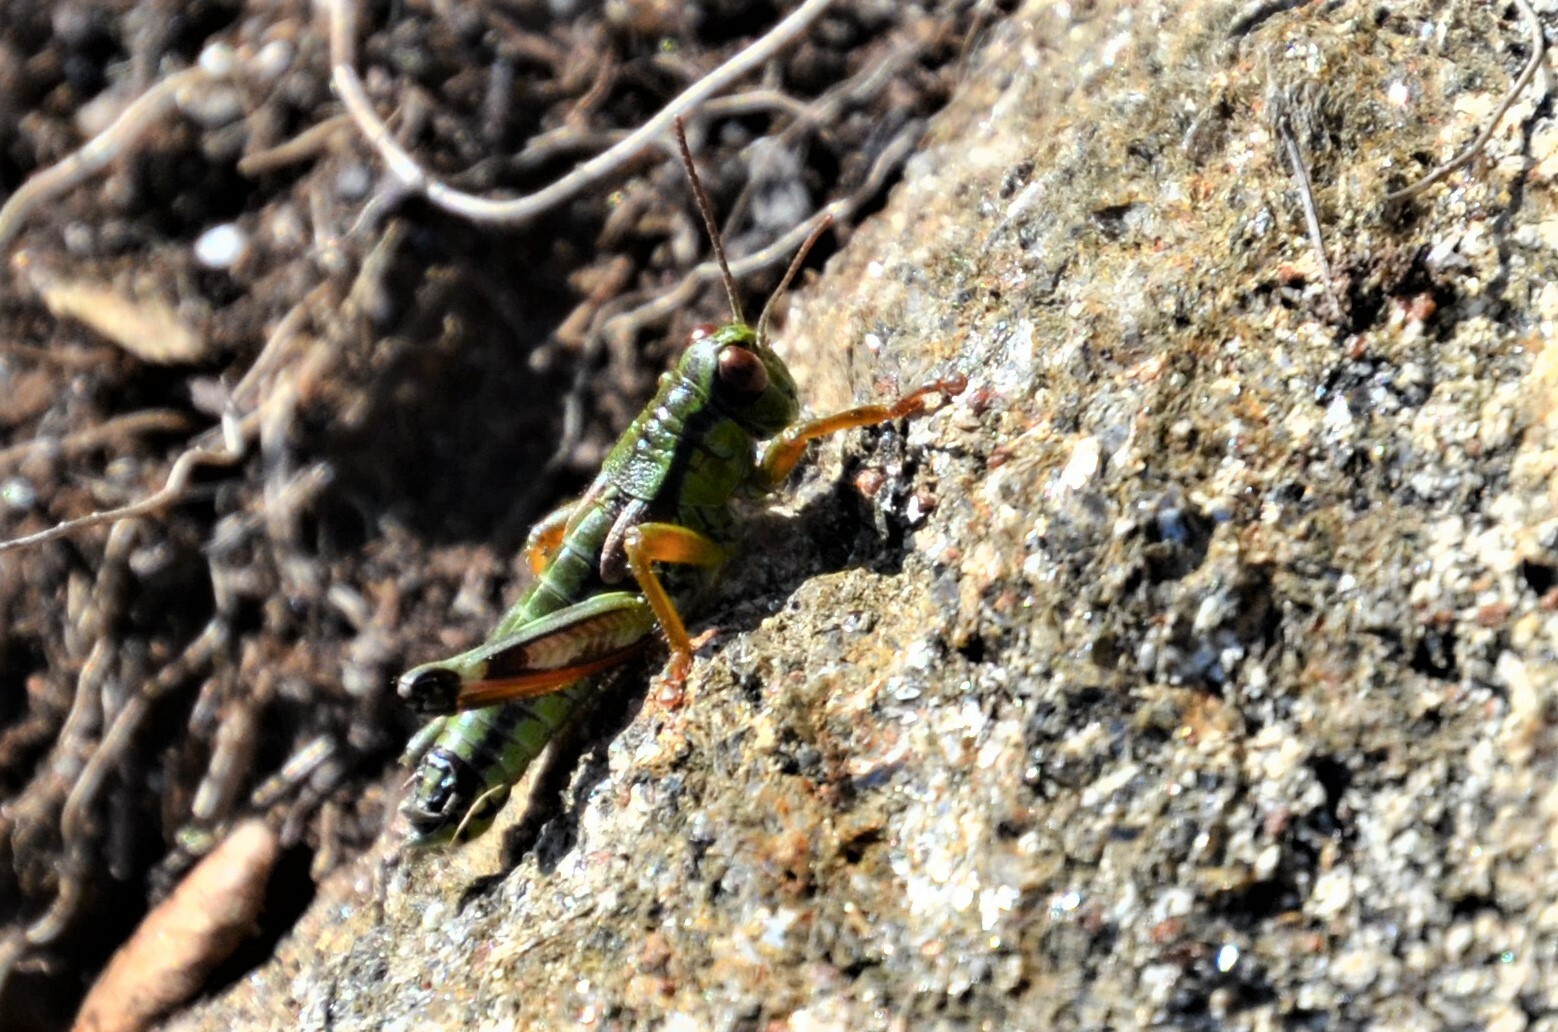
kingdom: Animalia
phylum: Arthropoda
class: Insecta
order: Orthoptera
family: Acrididae
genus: Miramella
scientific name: Miramella carinthiaca
